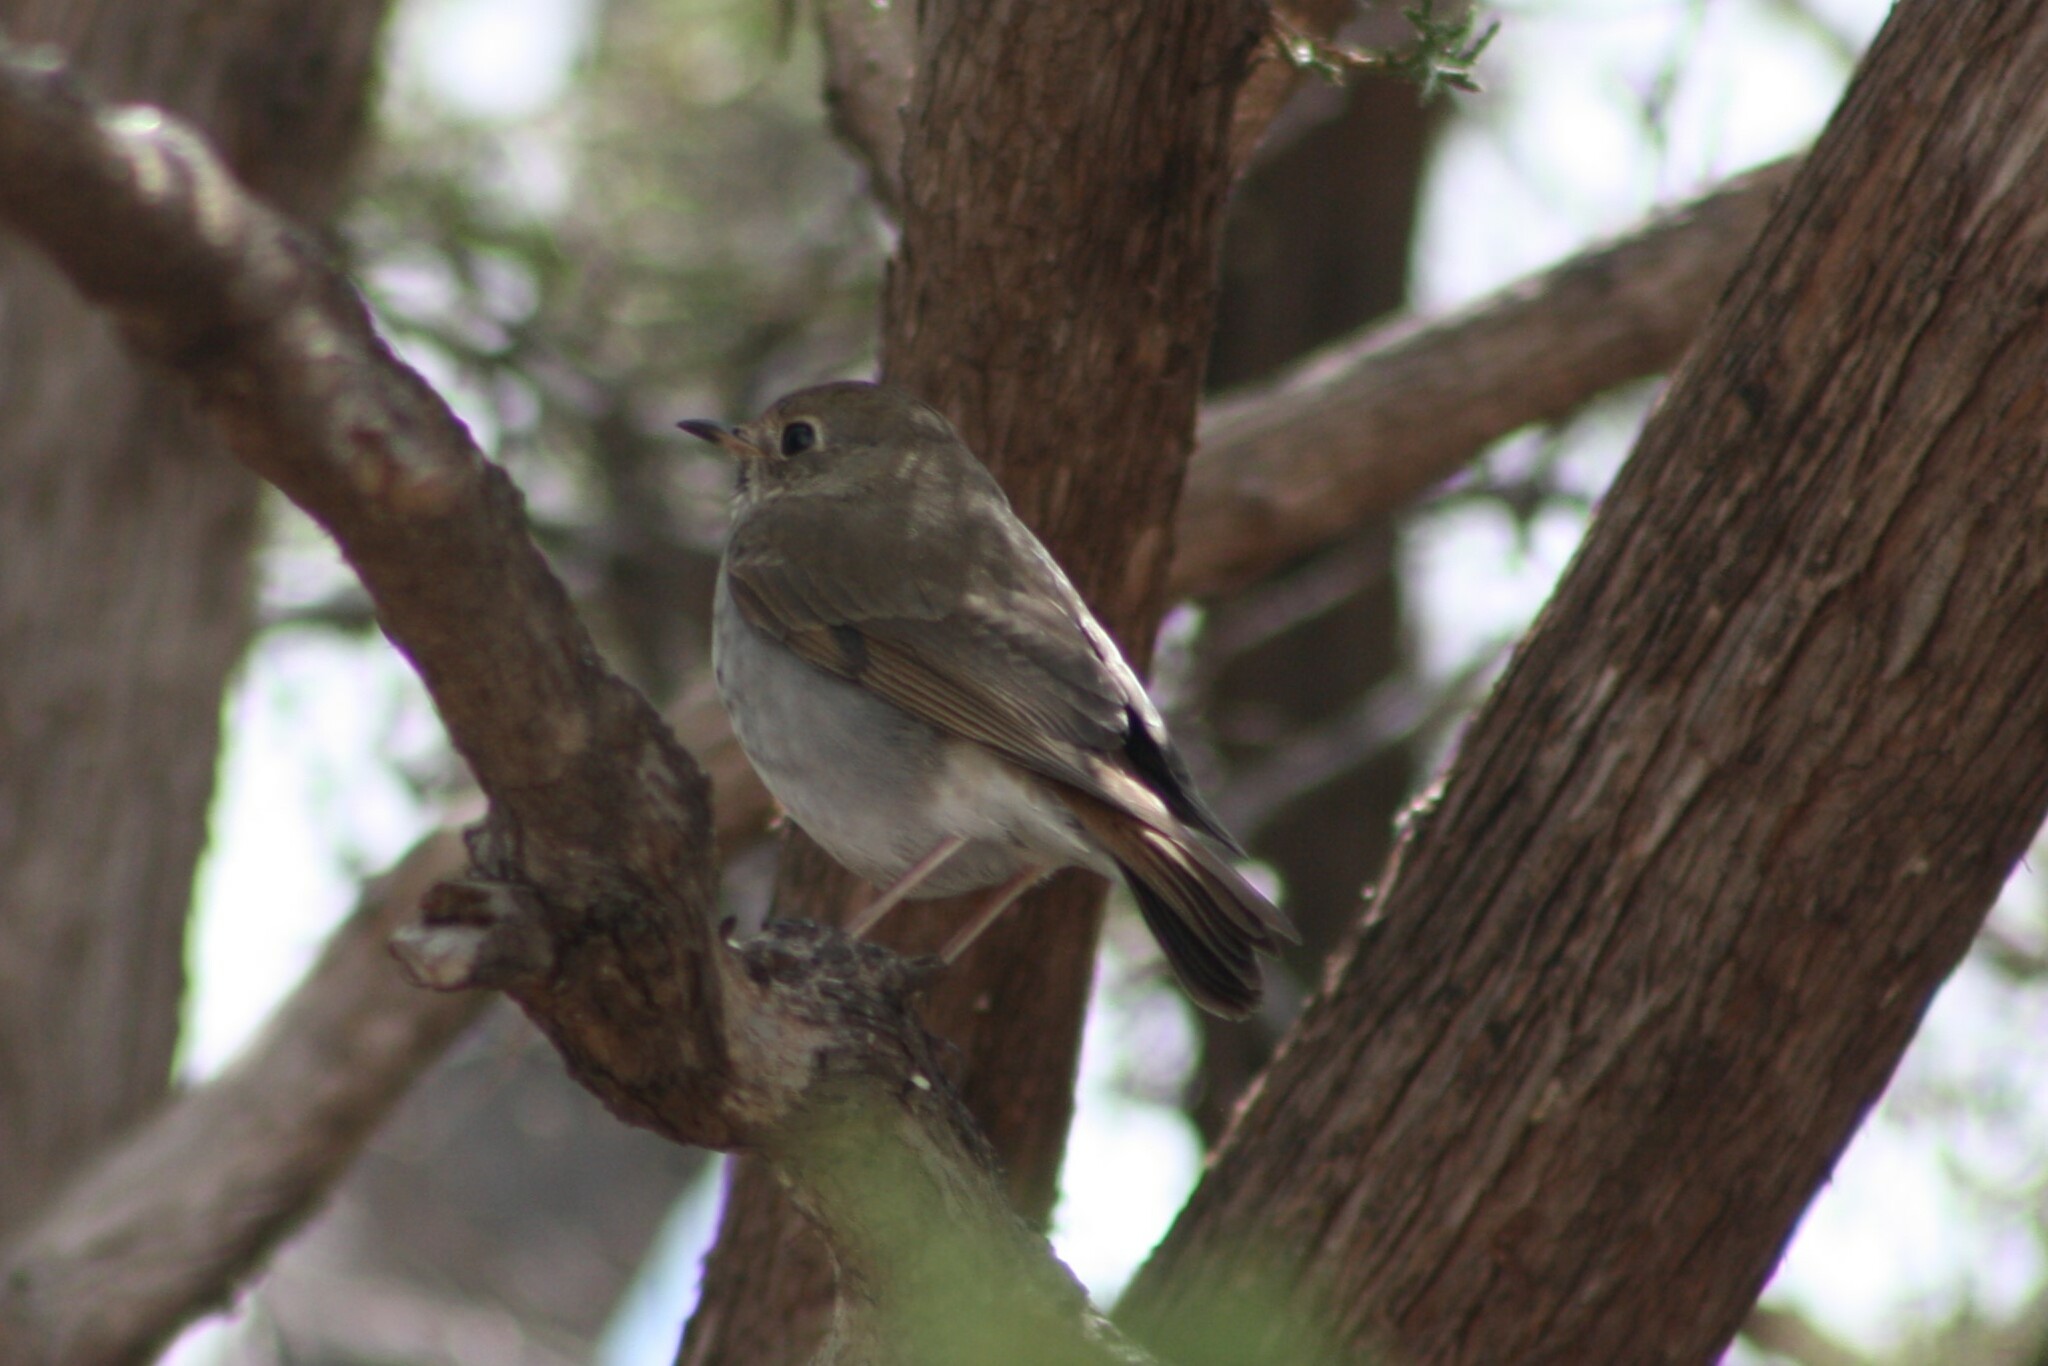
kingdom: Animalia
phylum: Chordata
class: Aves
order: Passeriformes
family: Turdidae
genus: Catharus
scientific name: Catharus guttatus
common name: Hermit thrush
